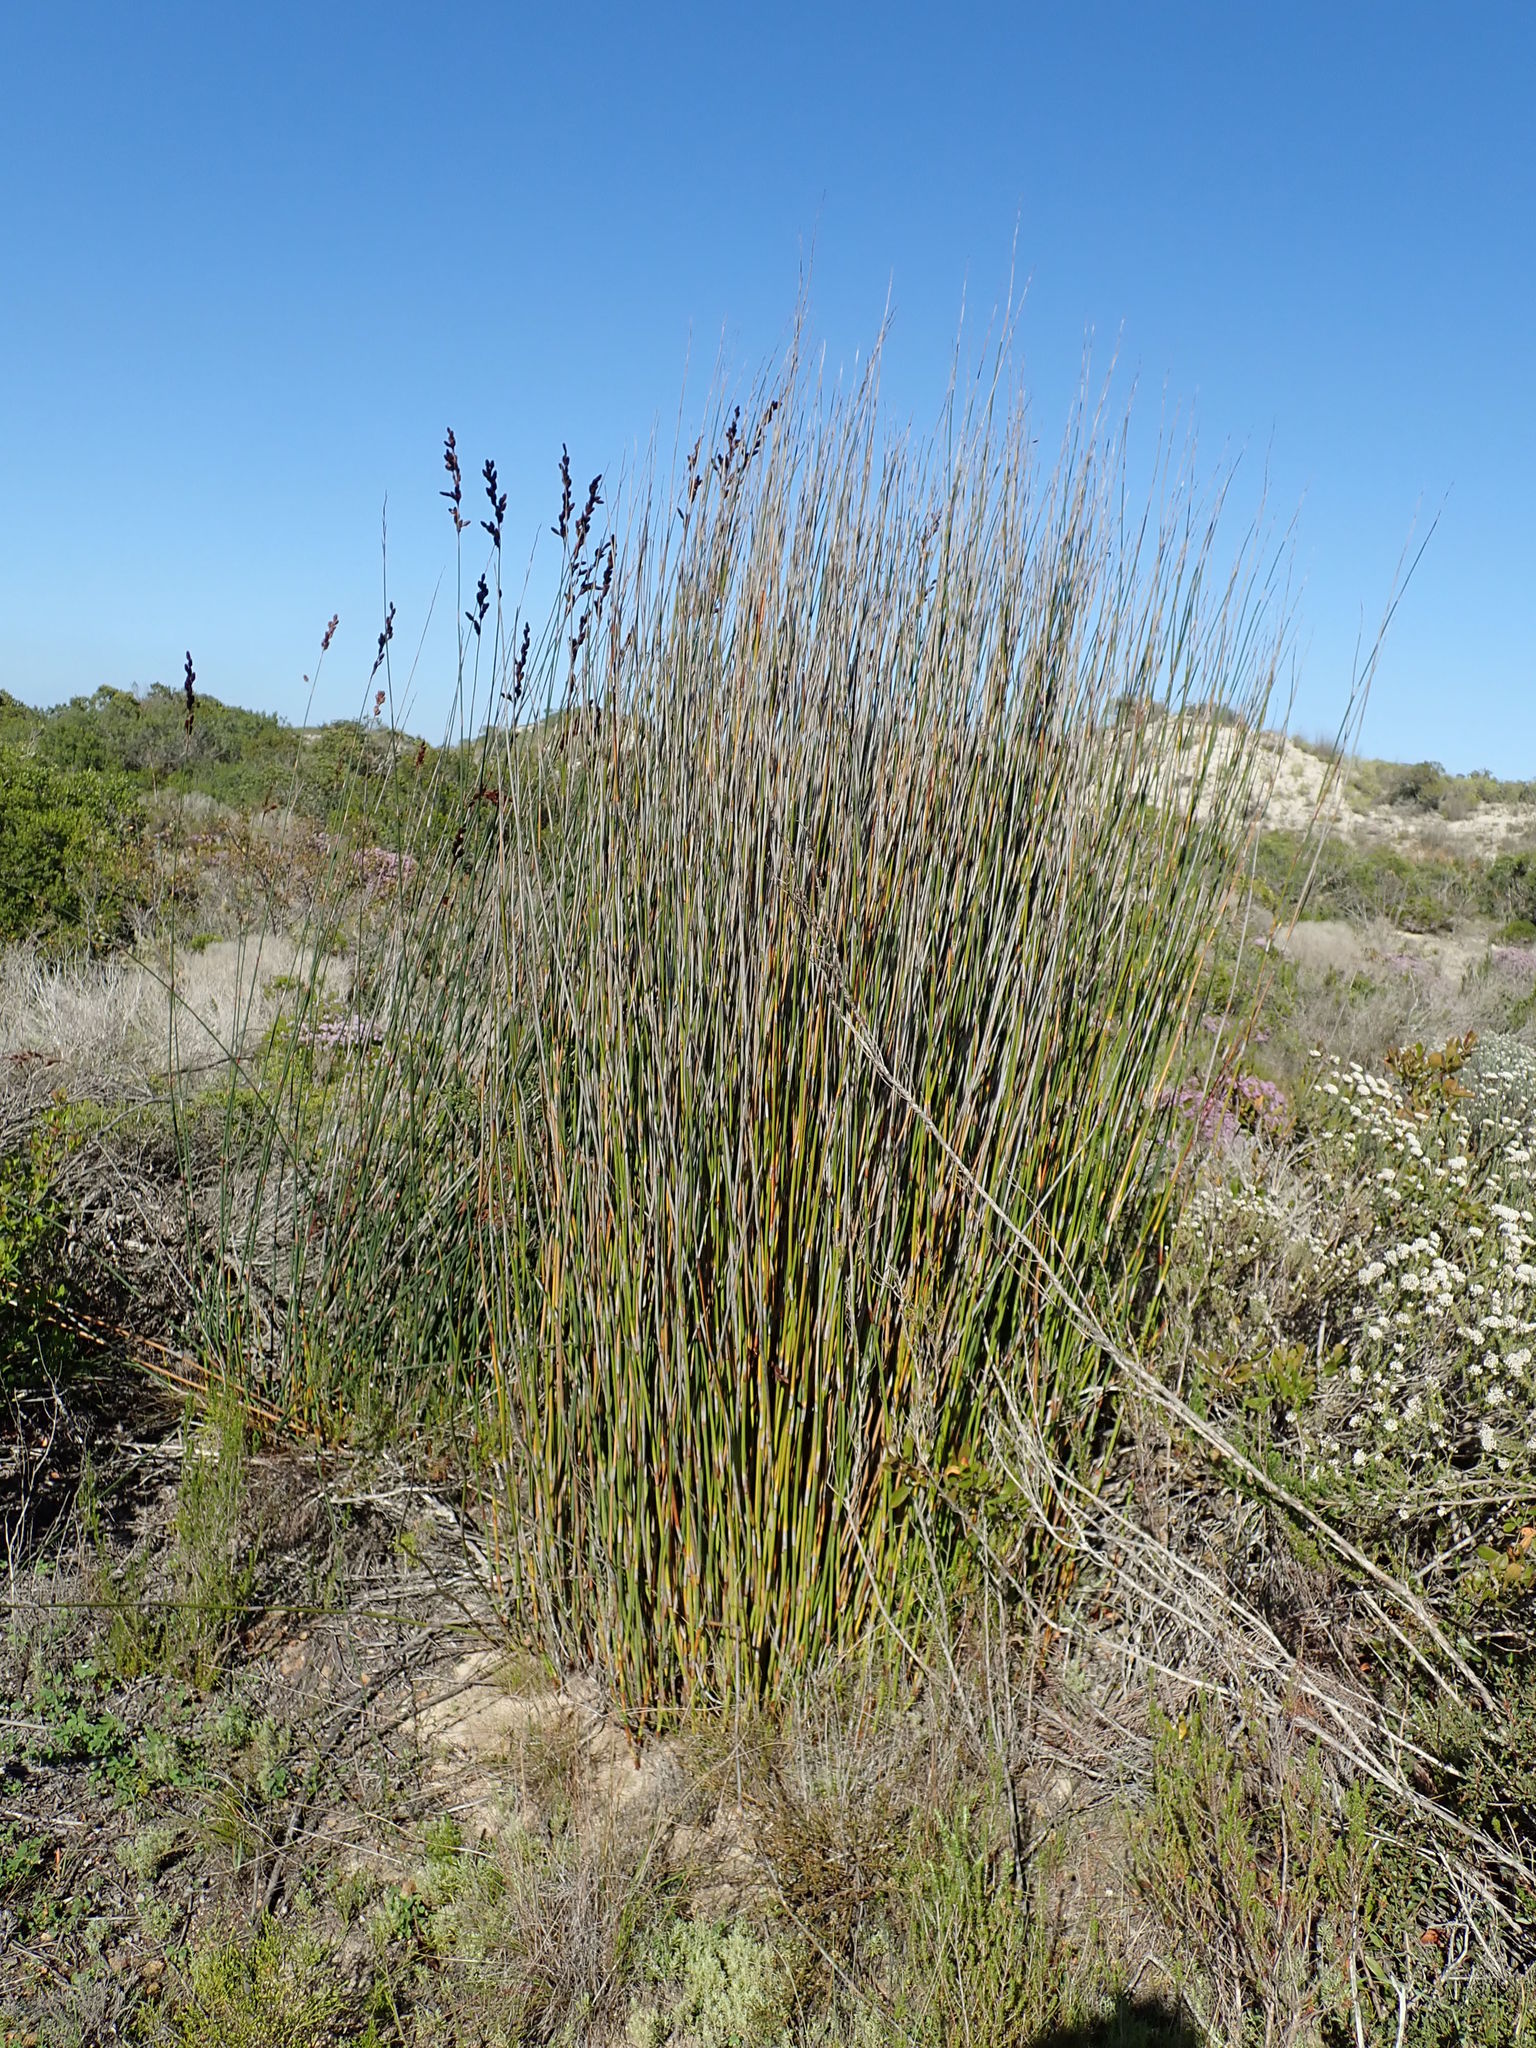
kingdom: Plantae
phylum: Tracheophyta
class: Liliopsida
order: Poales
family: Restionaceae
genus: Thamnochortus
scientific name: Thamnochortus spicigerus
